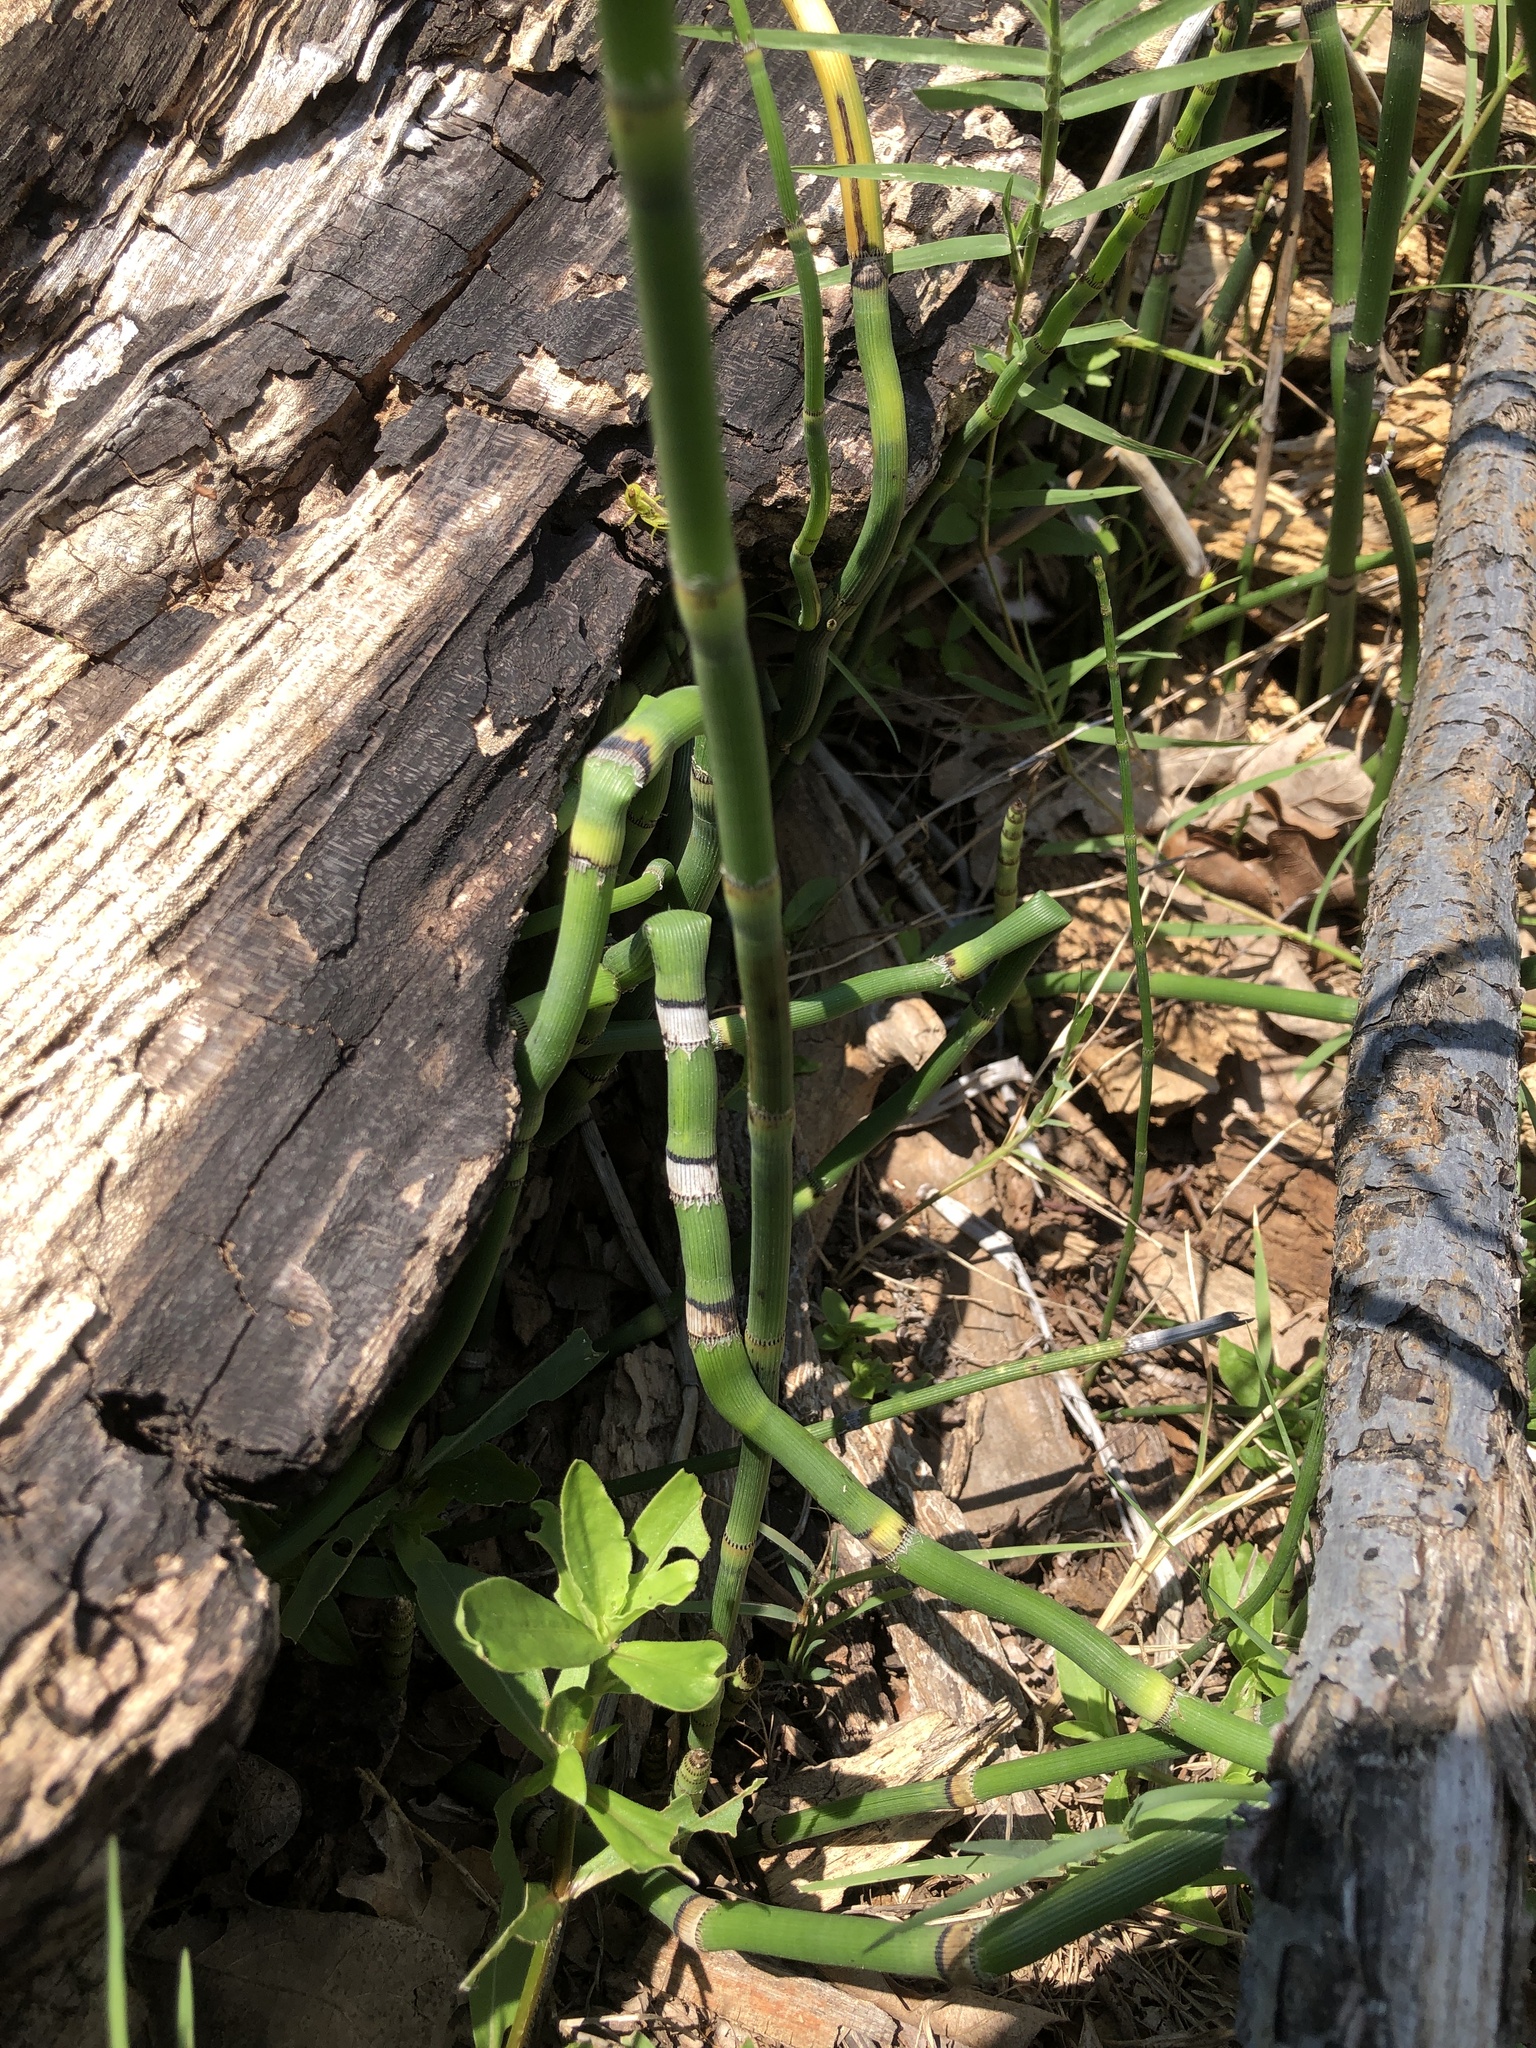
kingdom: Plantae
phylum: Tracheophyta
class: Polypodiopsida
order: Equisetales
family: Equisetaceae
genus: Equisetum
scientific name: Equisetum hyemale
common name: Rough horsetail
